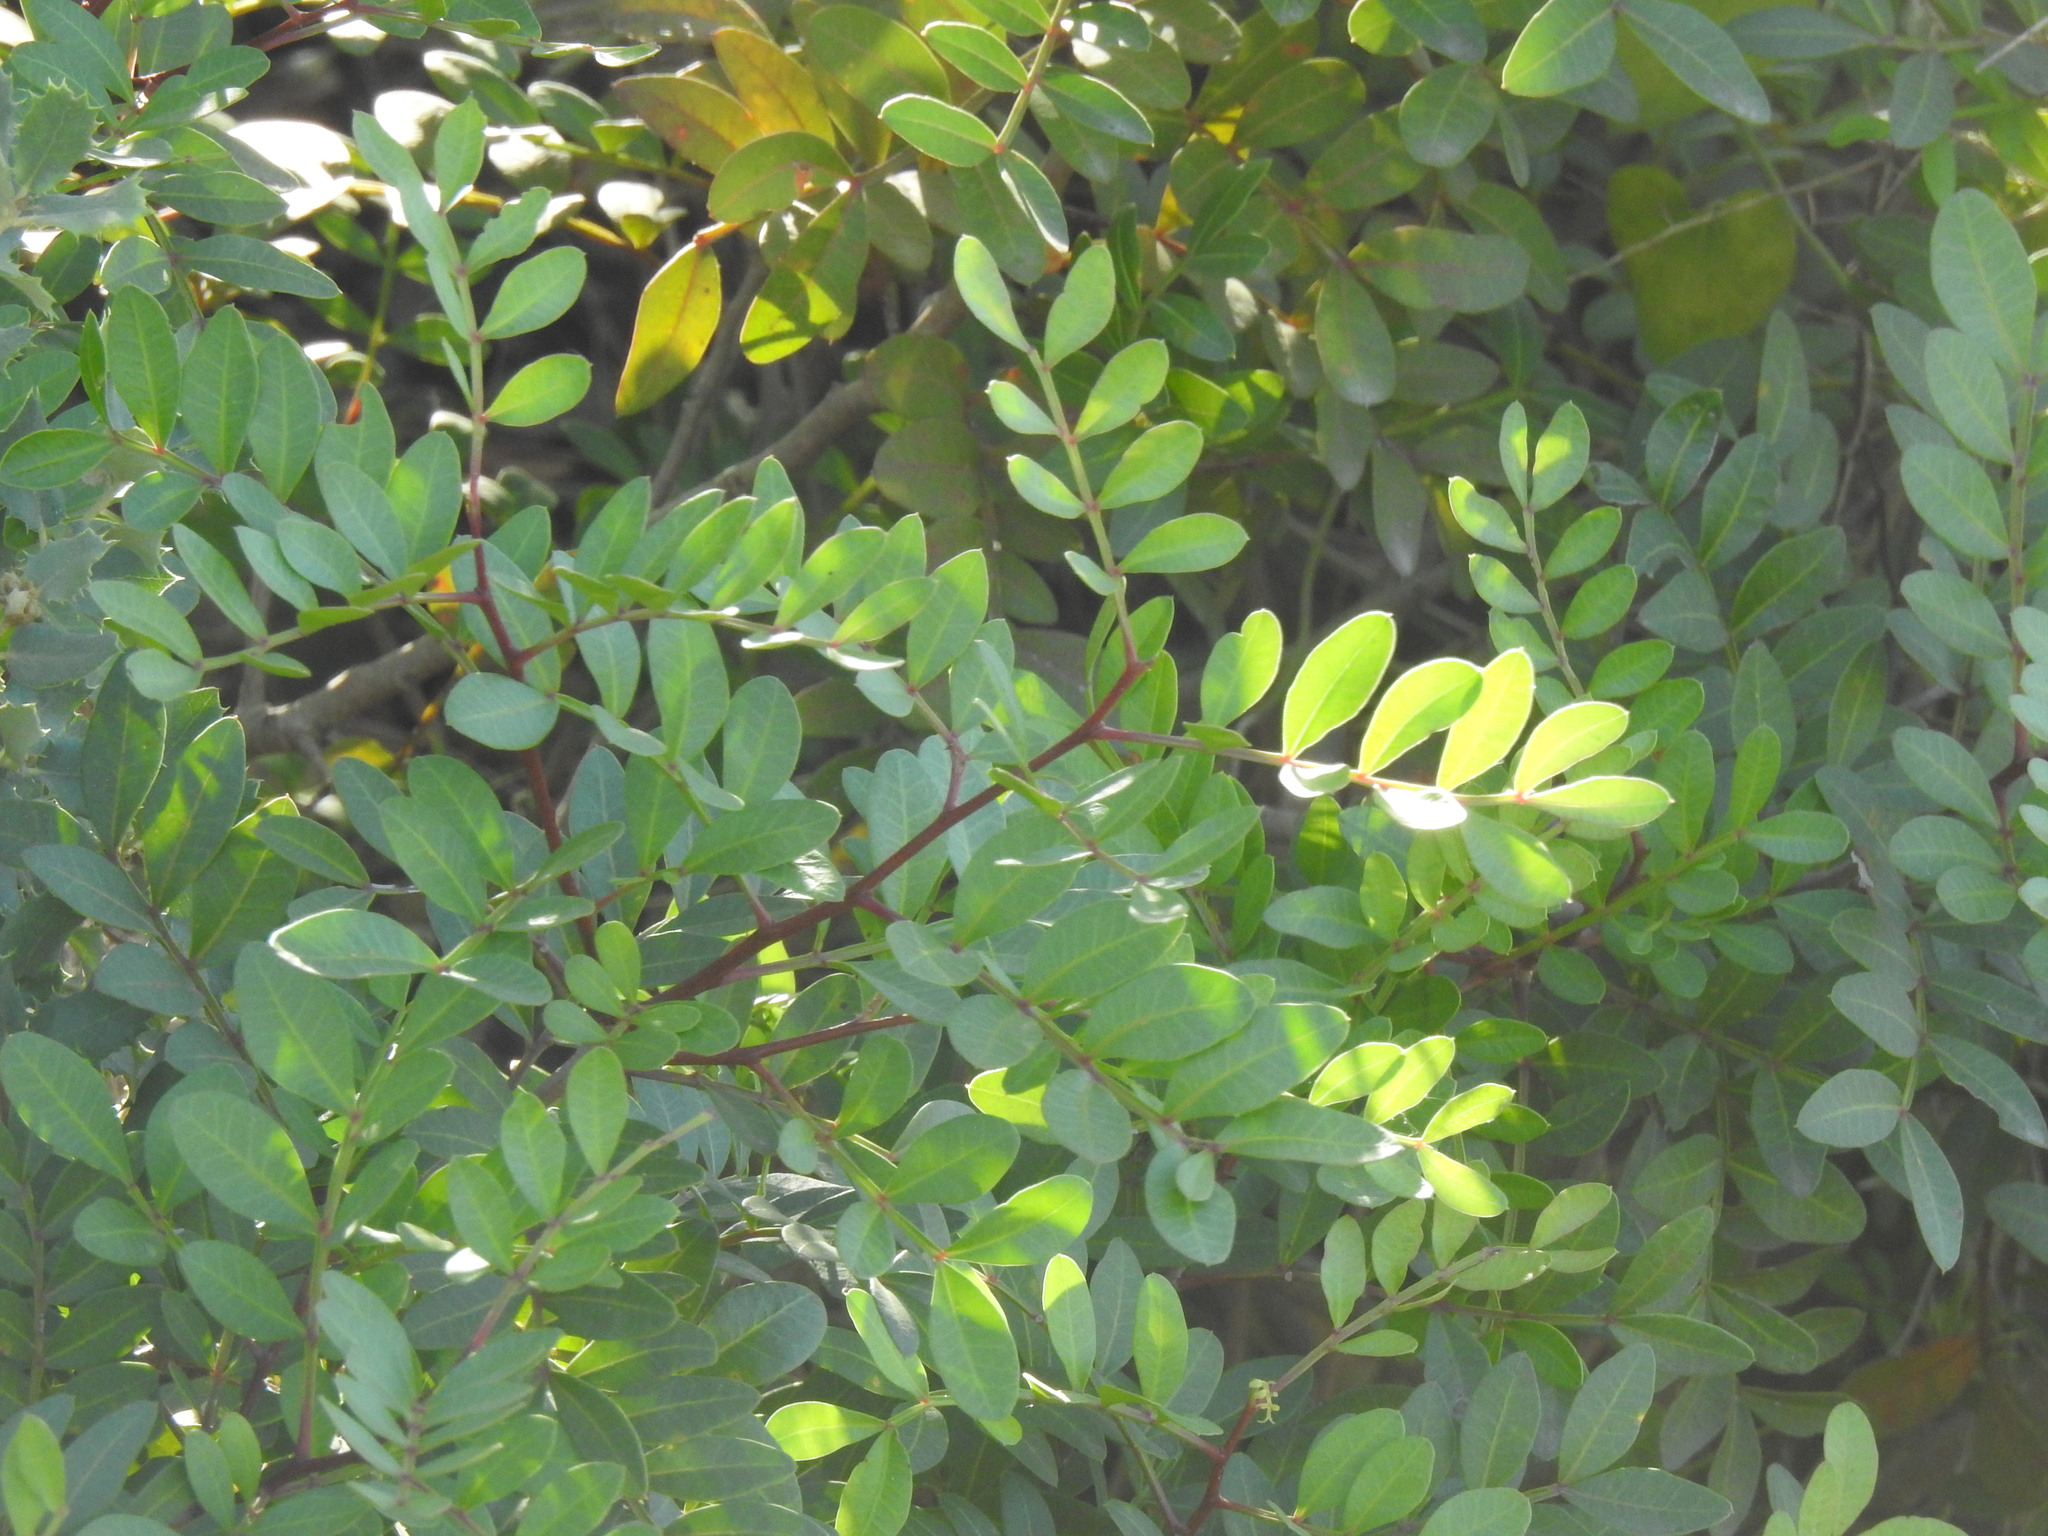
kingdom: Plantae
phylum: Tracheophyta
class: Magnoliopsida
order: Sapindales
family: Anacardiaceae
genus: Pistacia
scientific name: Pistacia lentiscus
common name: Lentisk
